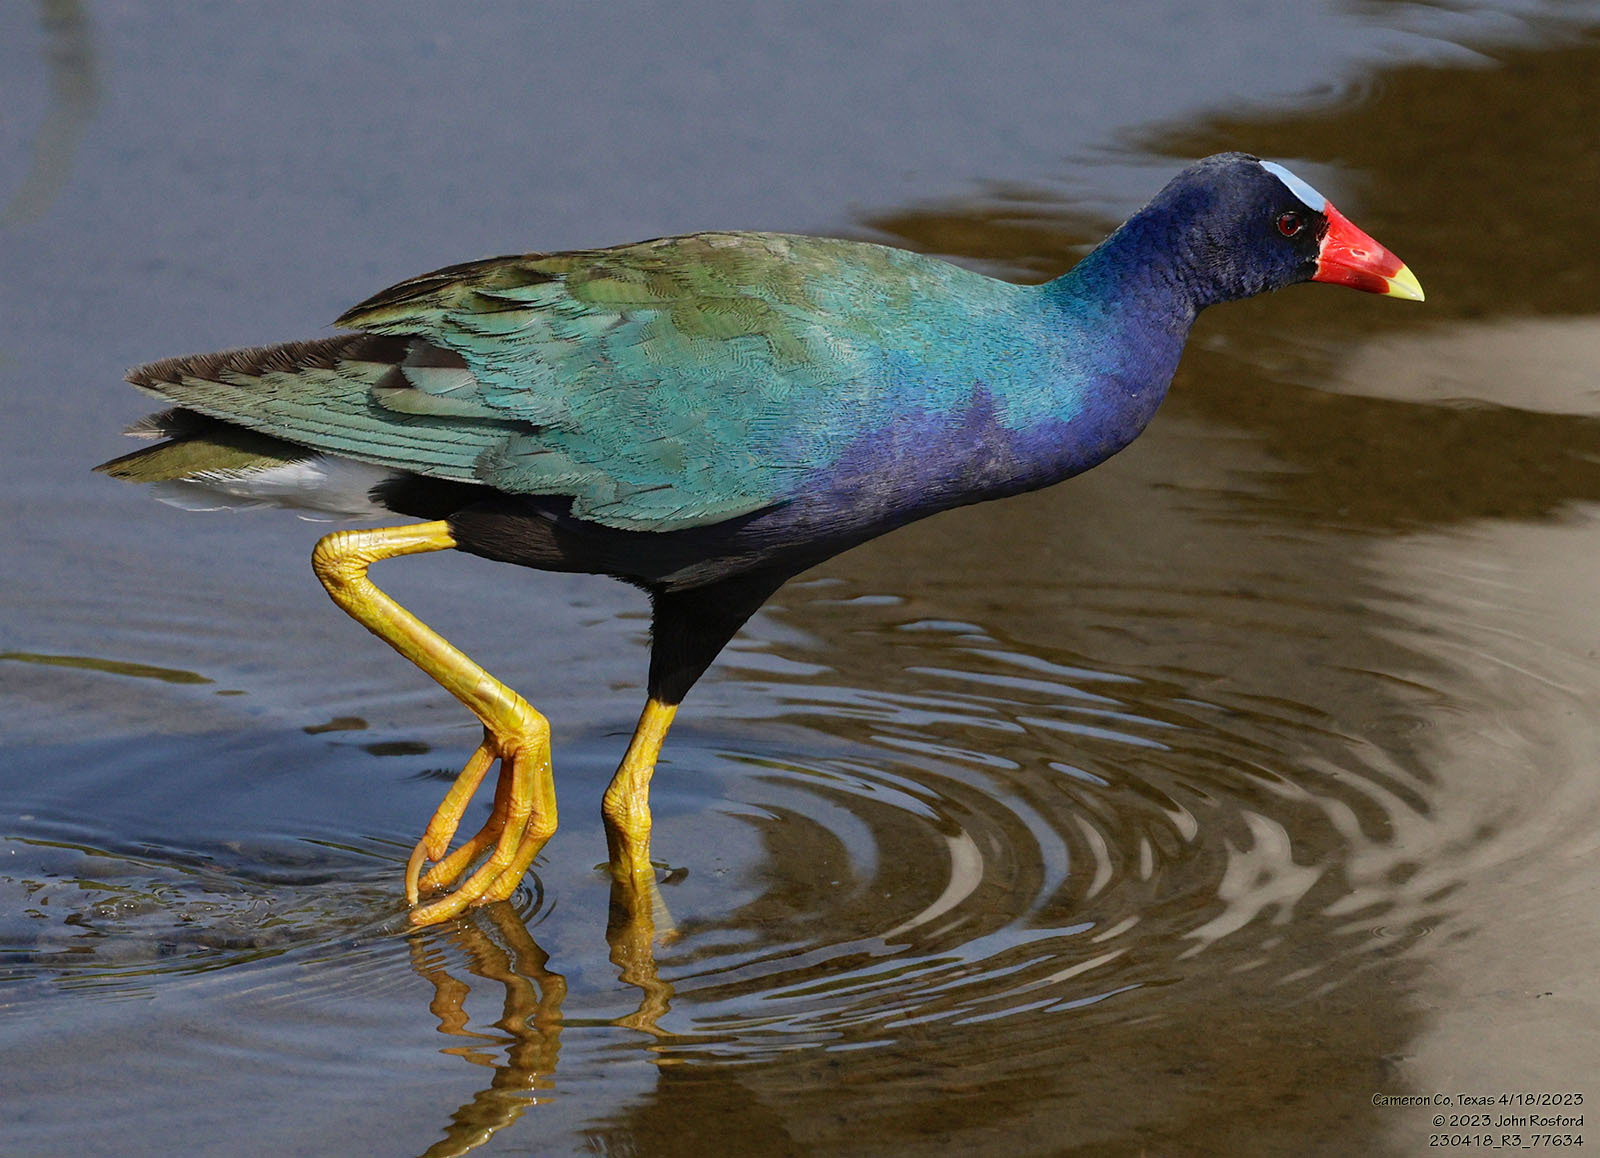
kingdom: Animalia
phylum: Chordata
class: Aves
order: Gruiformes
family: Rallidae
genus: Porphyrio
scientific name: Porphyrio martinica
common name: Purple gallinule
